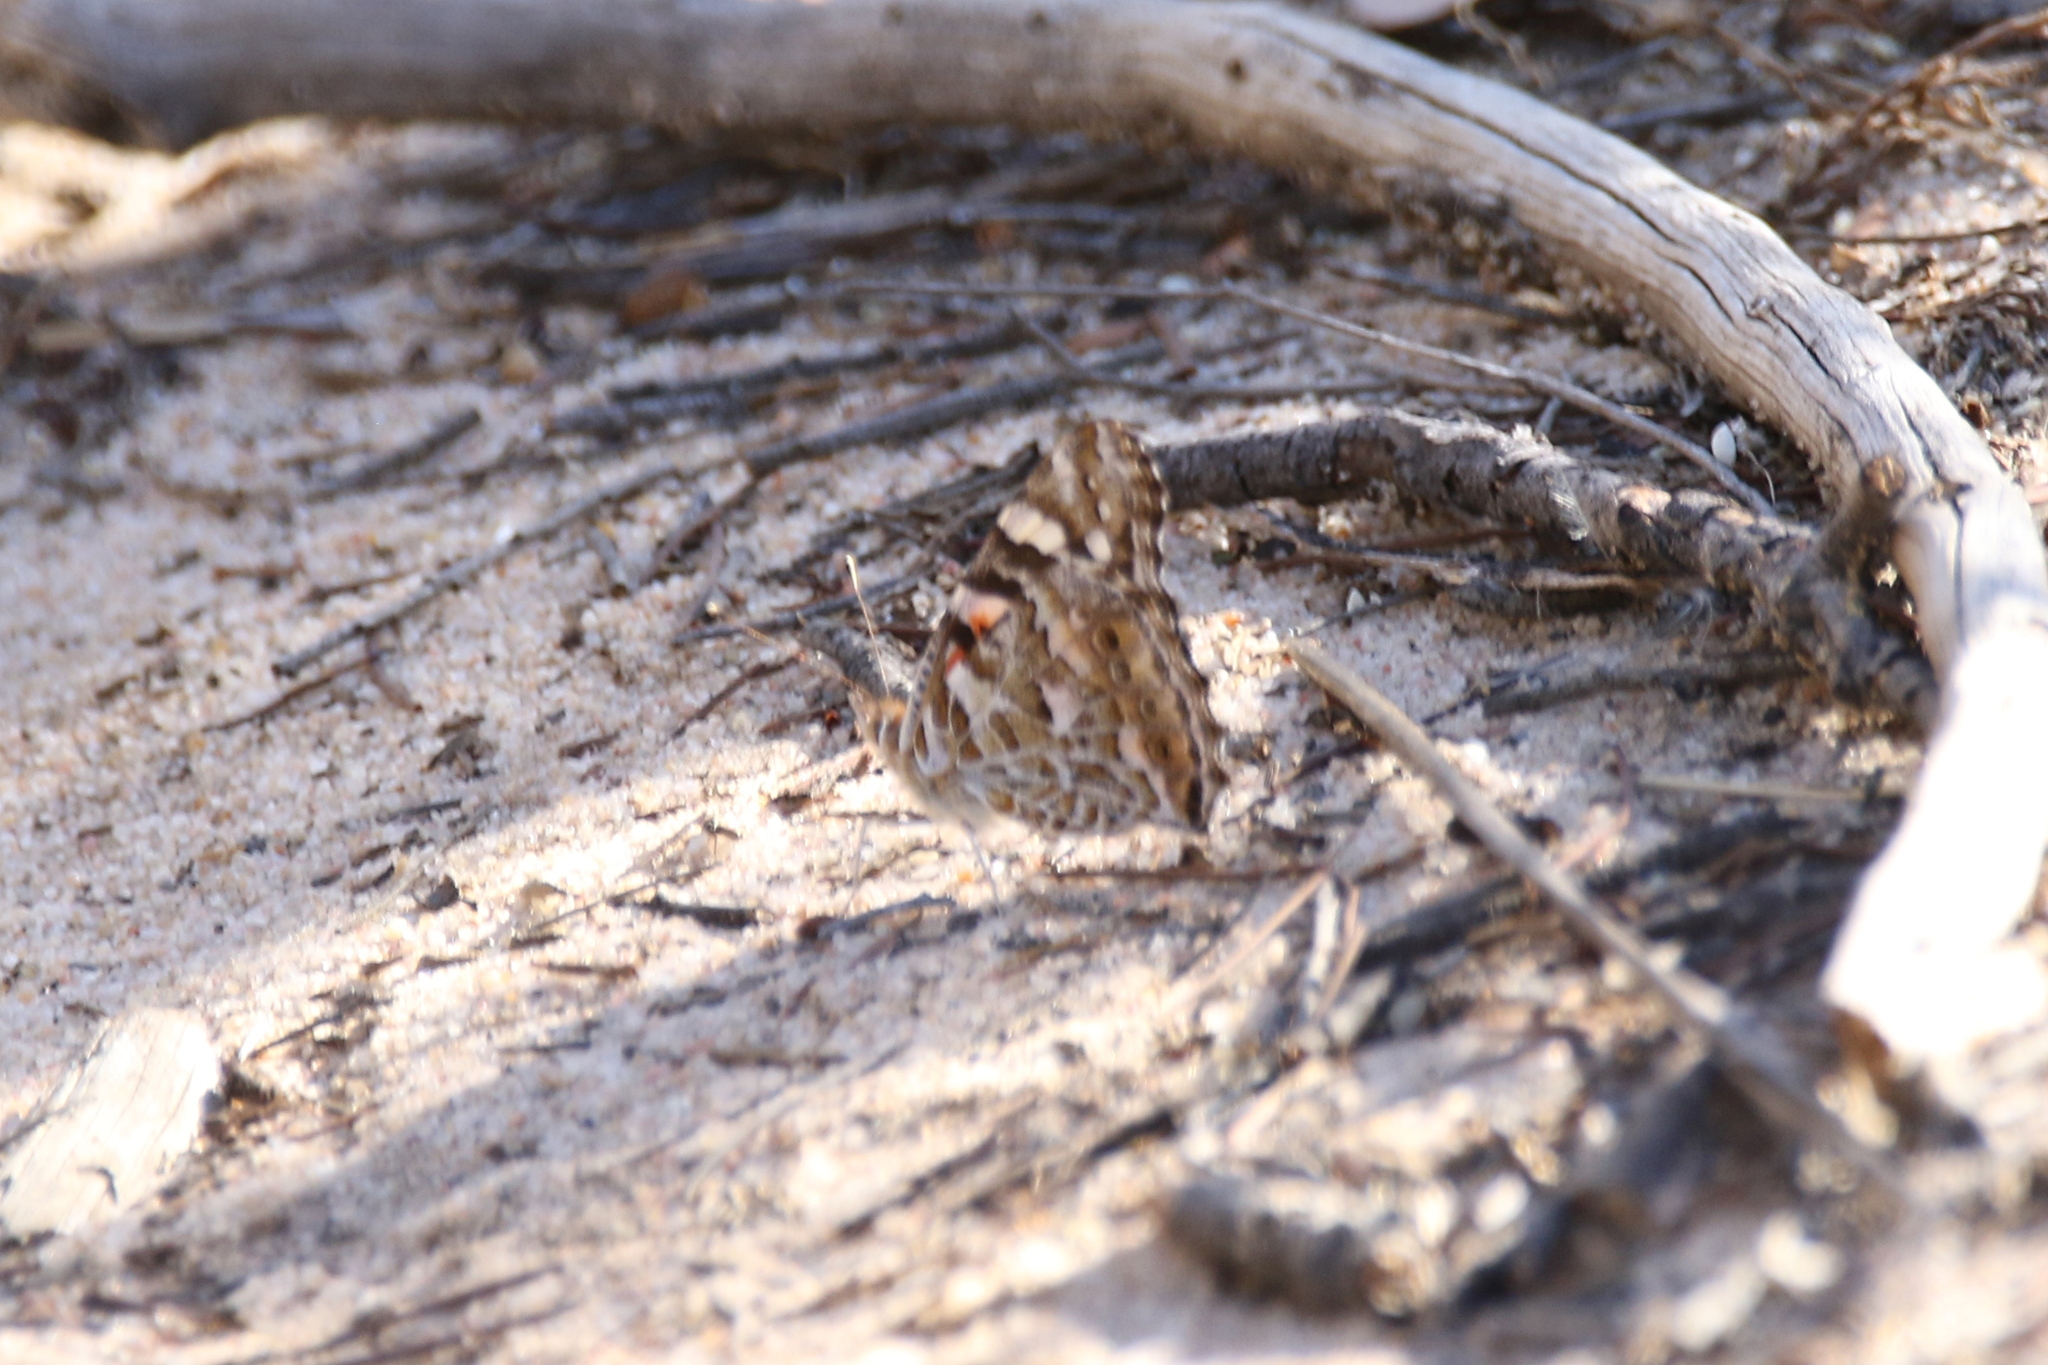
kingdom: Animalia
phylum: Arthropoda
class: Insecta
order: Lepidoptera
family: Nymphalidae
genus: Vanessa
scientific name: Vanessa kershawi
